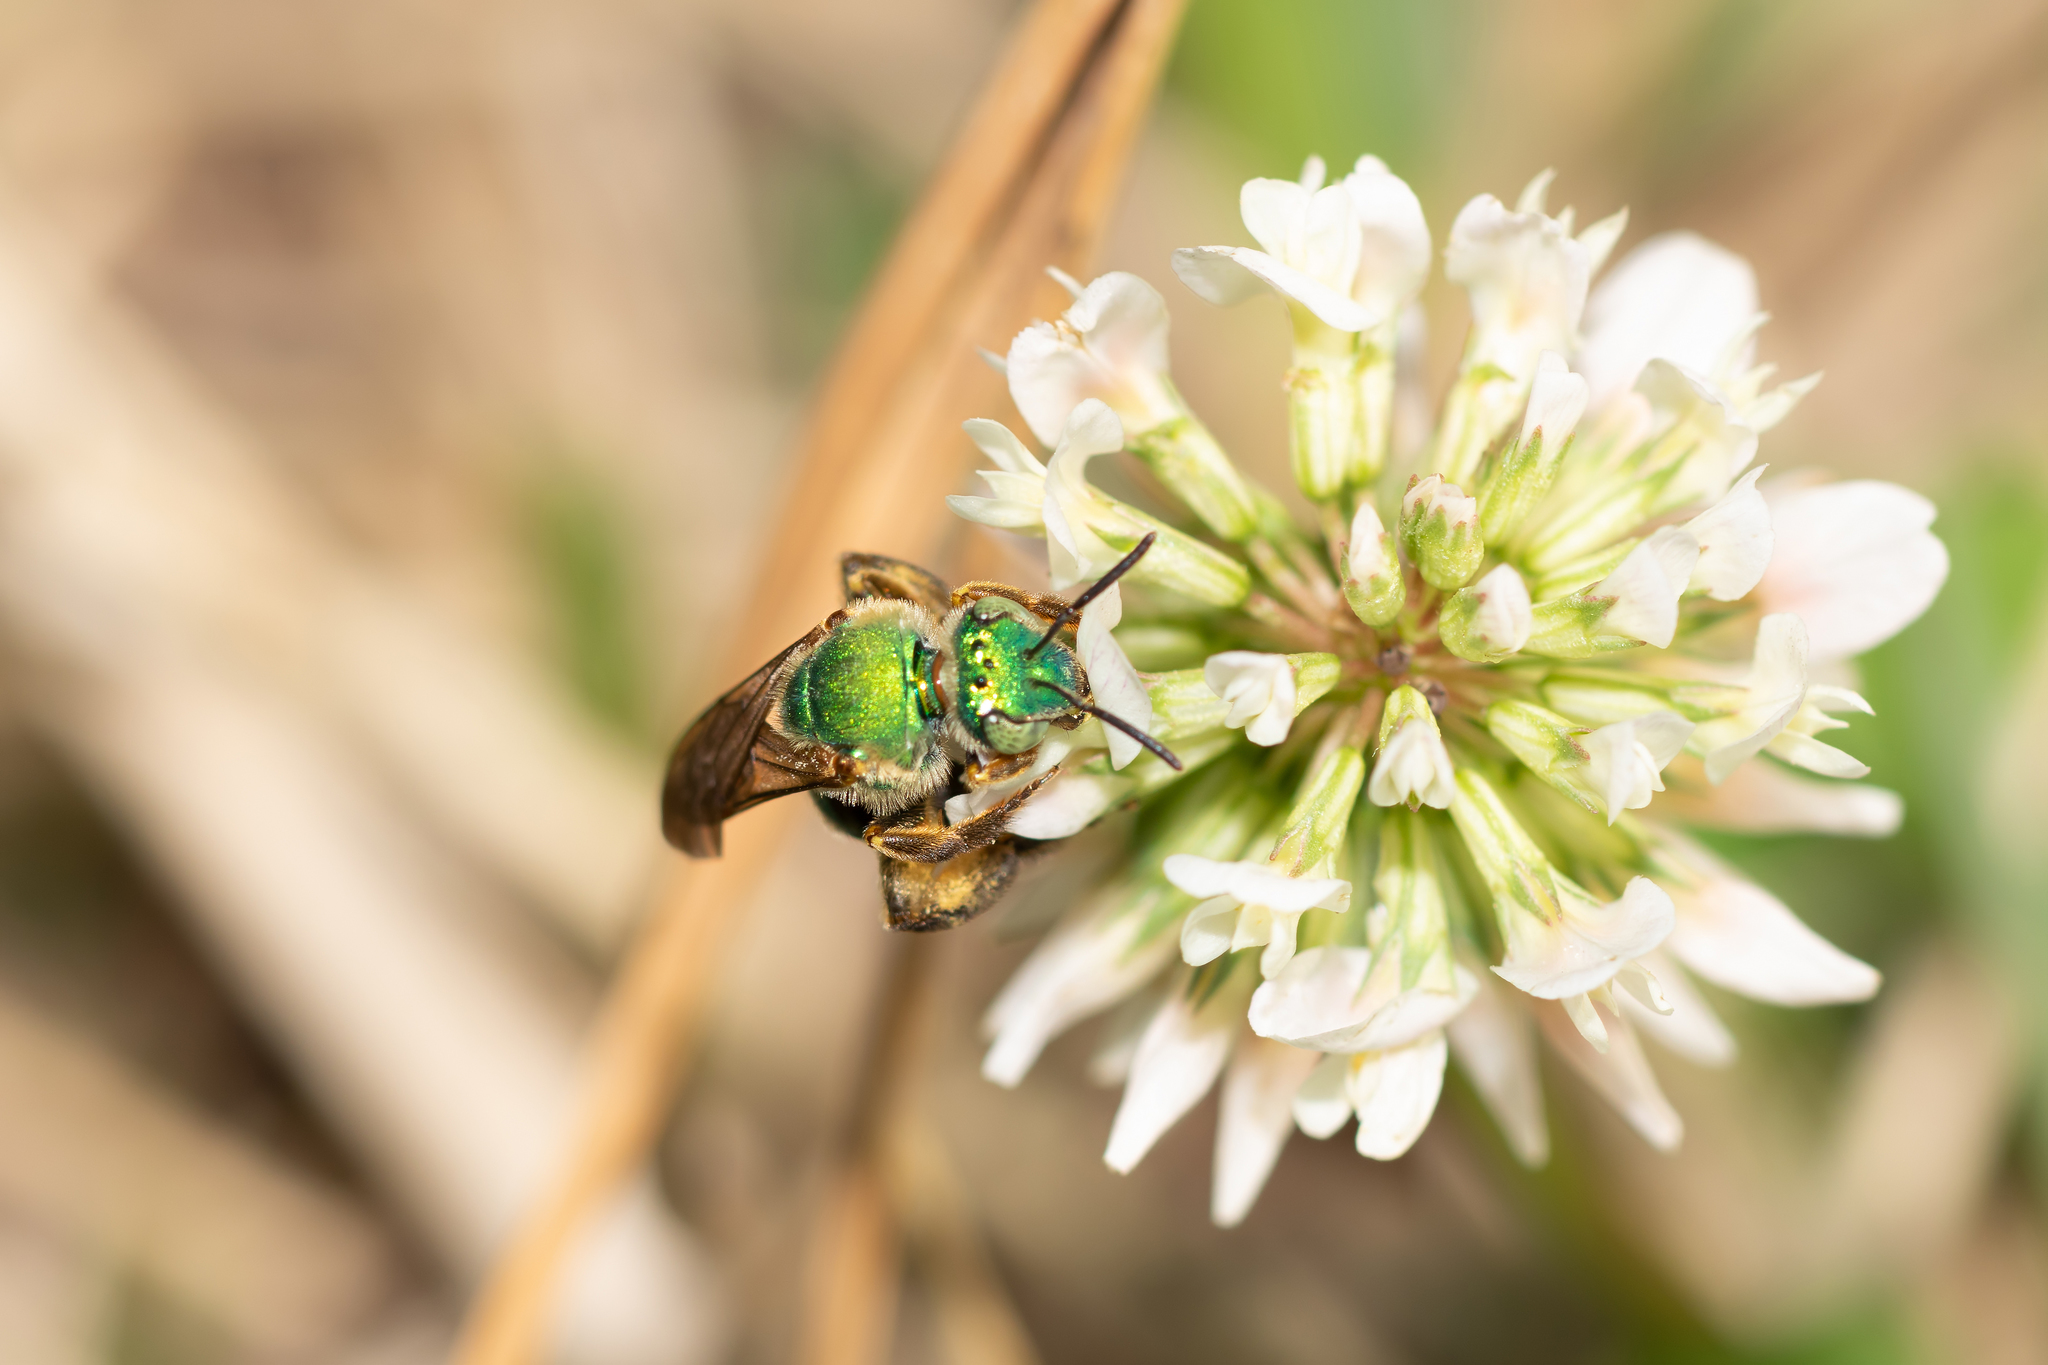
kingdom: Animalia
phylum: Arthropoda
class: Insecta
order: Hymenoptera
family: Halictidae
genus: Agapostemon
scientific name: Agapostemon splendens
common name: Brown-winged striped sweat bee
